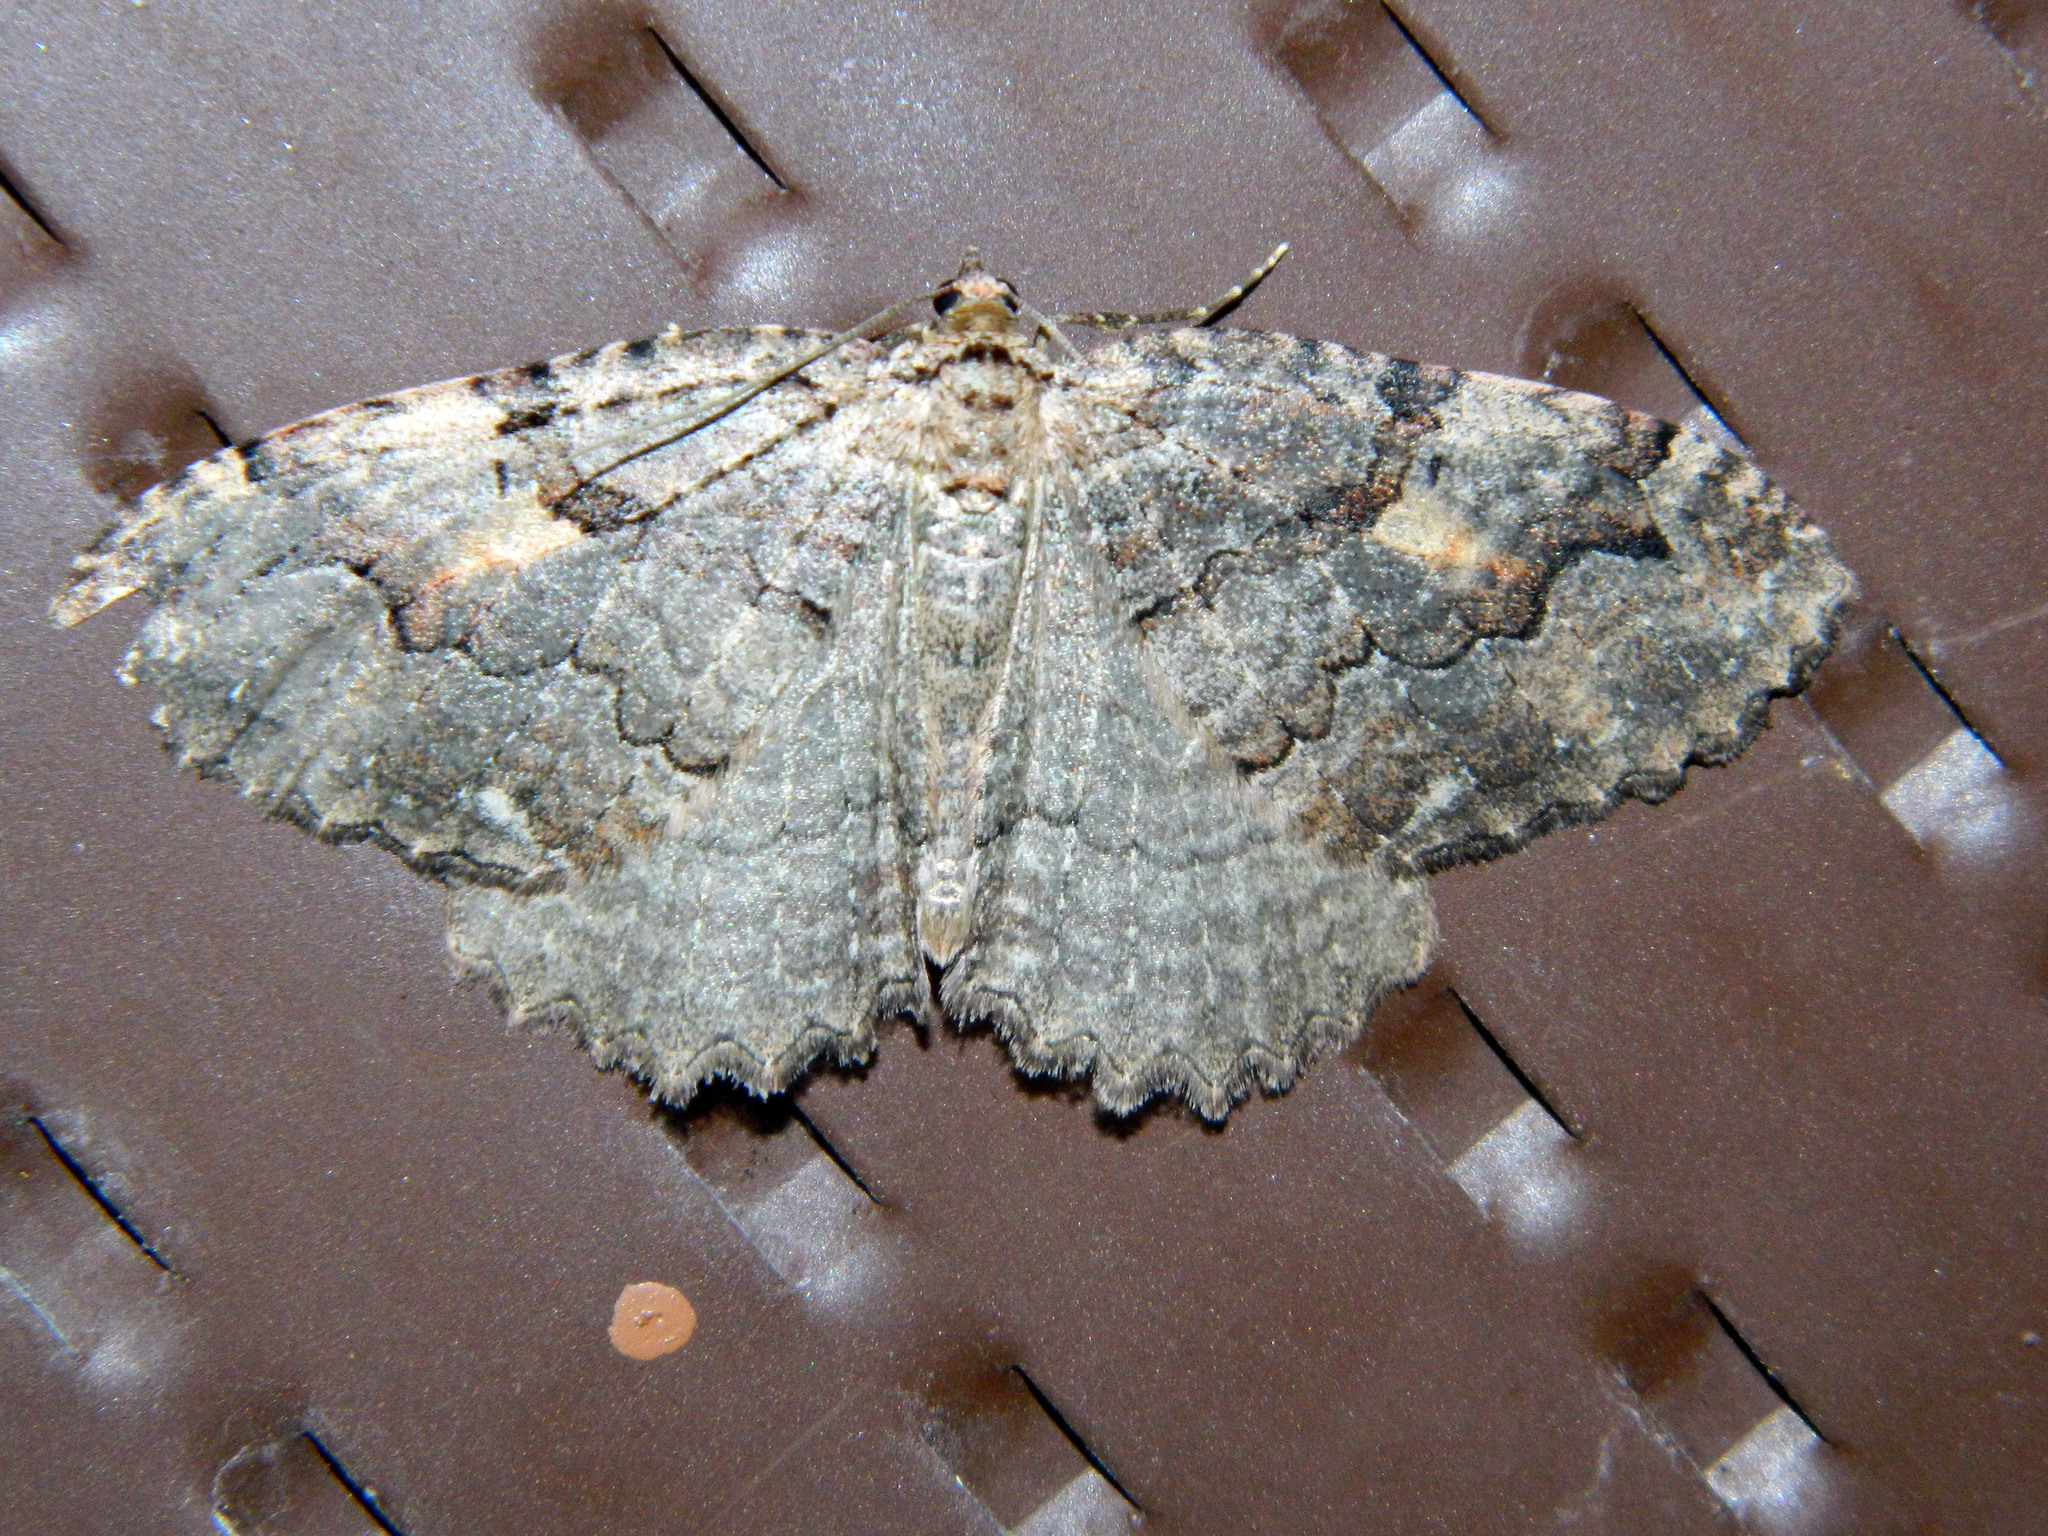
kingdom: Animalia
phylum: Arthropoda
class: Insecta
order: Lepidoptera
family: Geometridae
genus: Triphosa
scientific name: Triphosa haesitata
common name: Tissue moth
